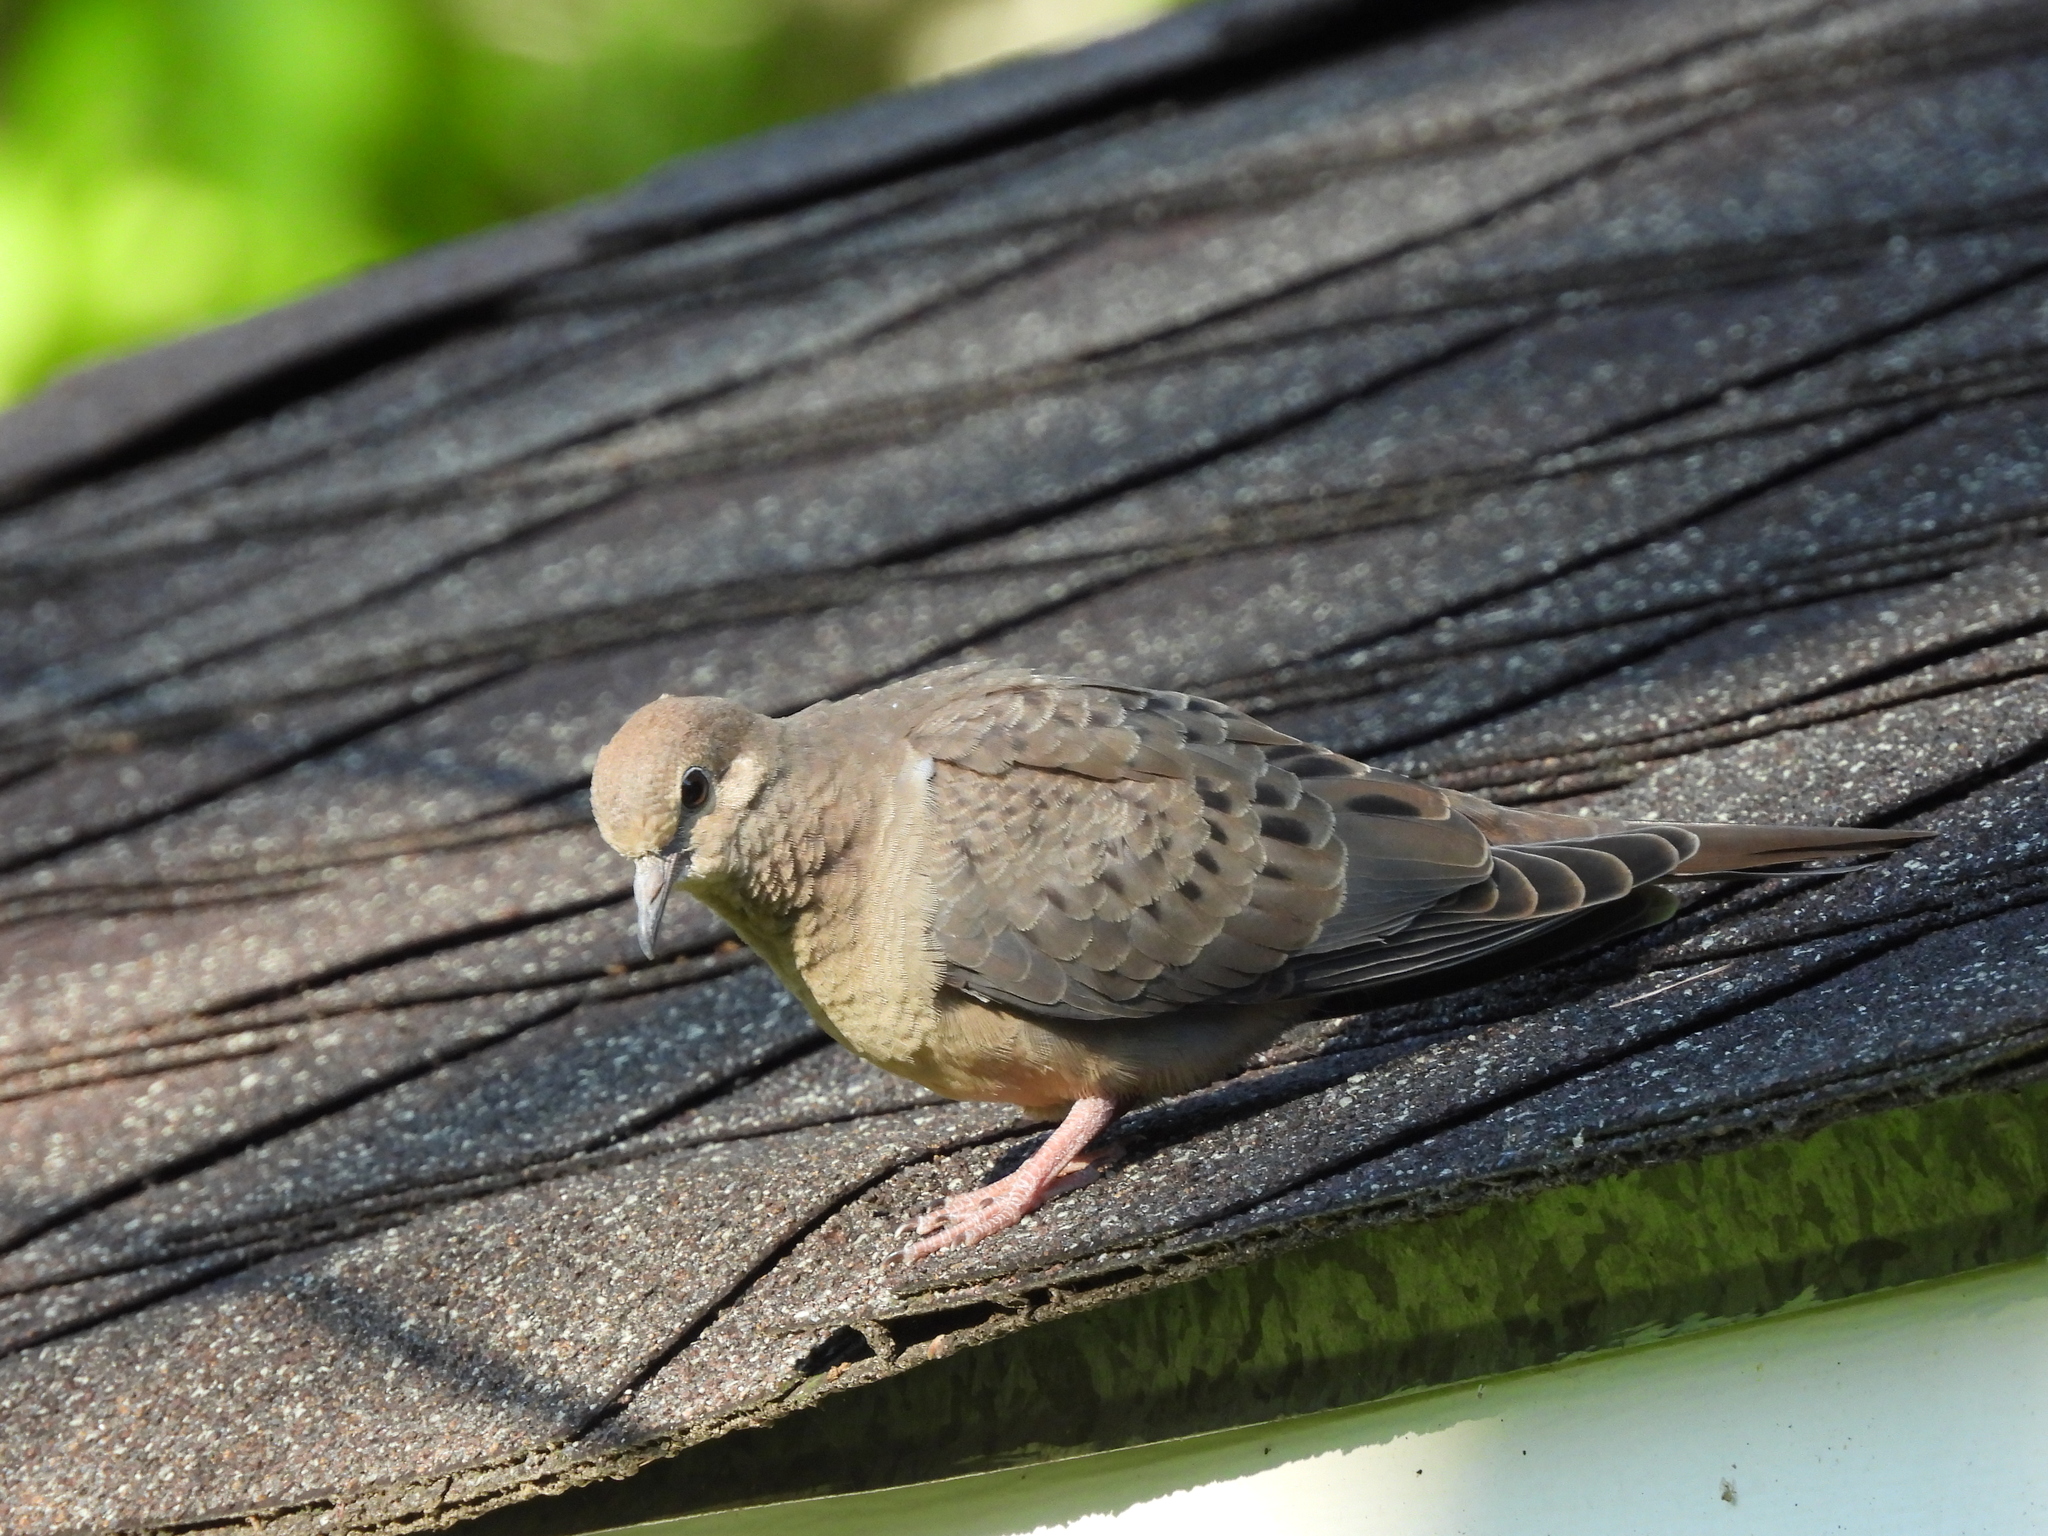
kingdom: Animalia
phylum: Chordata
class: Aves
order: Columbiformes
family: Columbidae
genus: Zenaida
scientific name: Zenaida macroura
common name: Mourning dove
